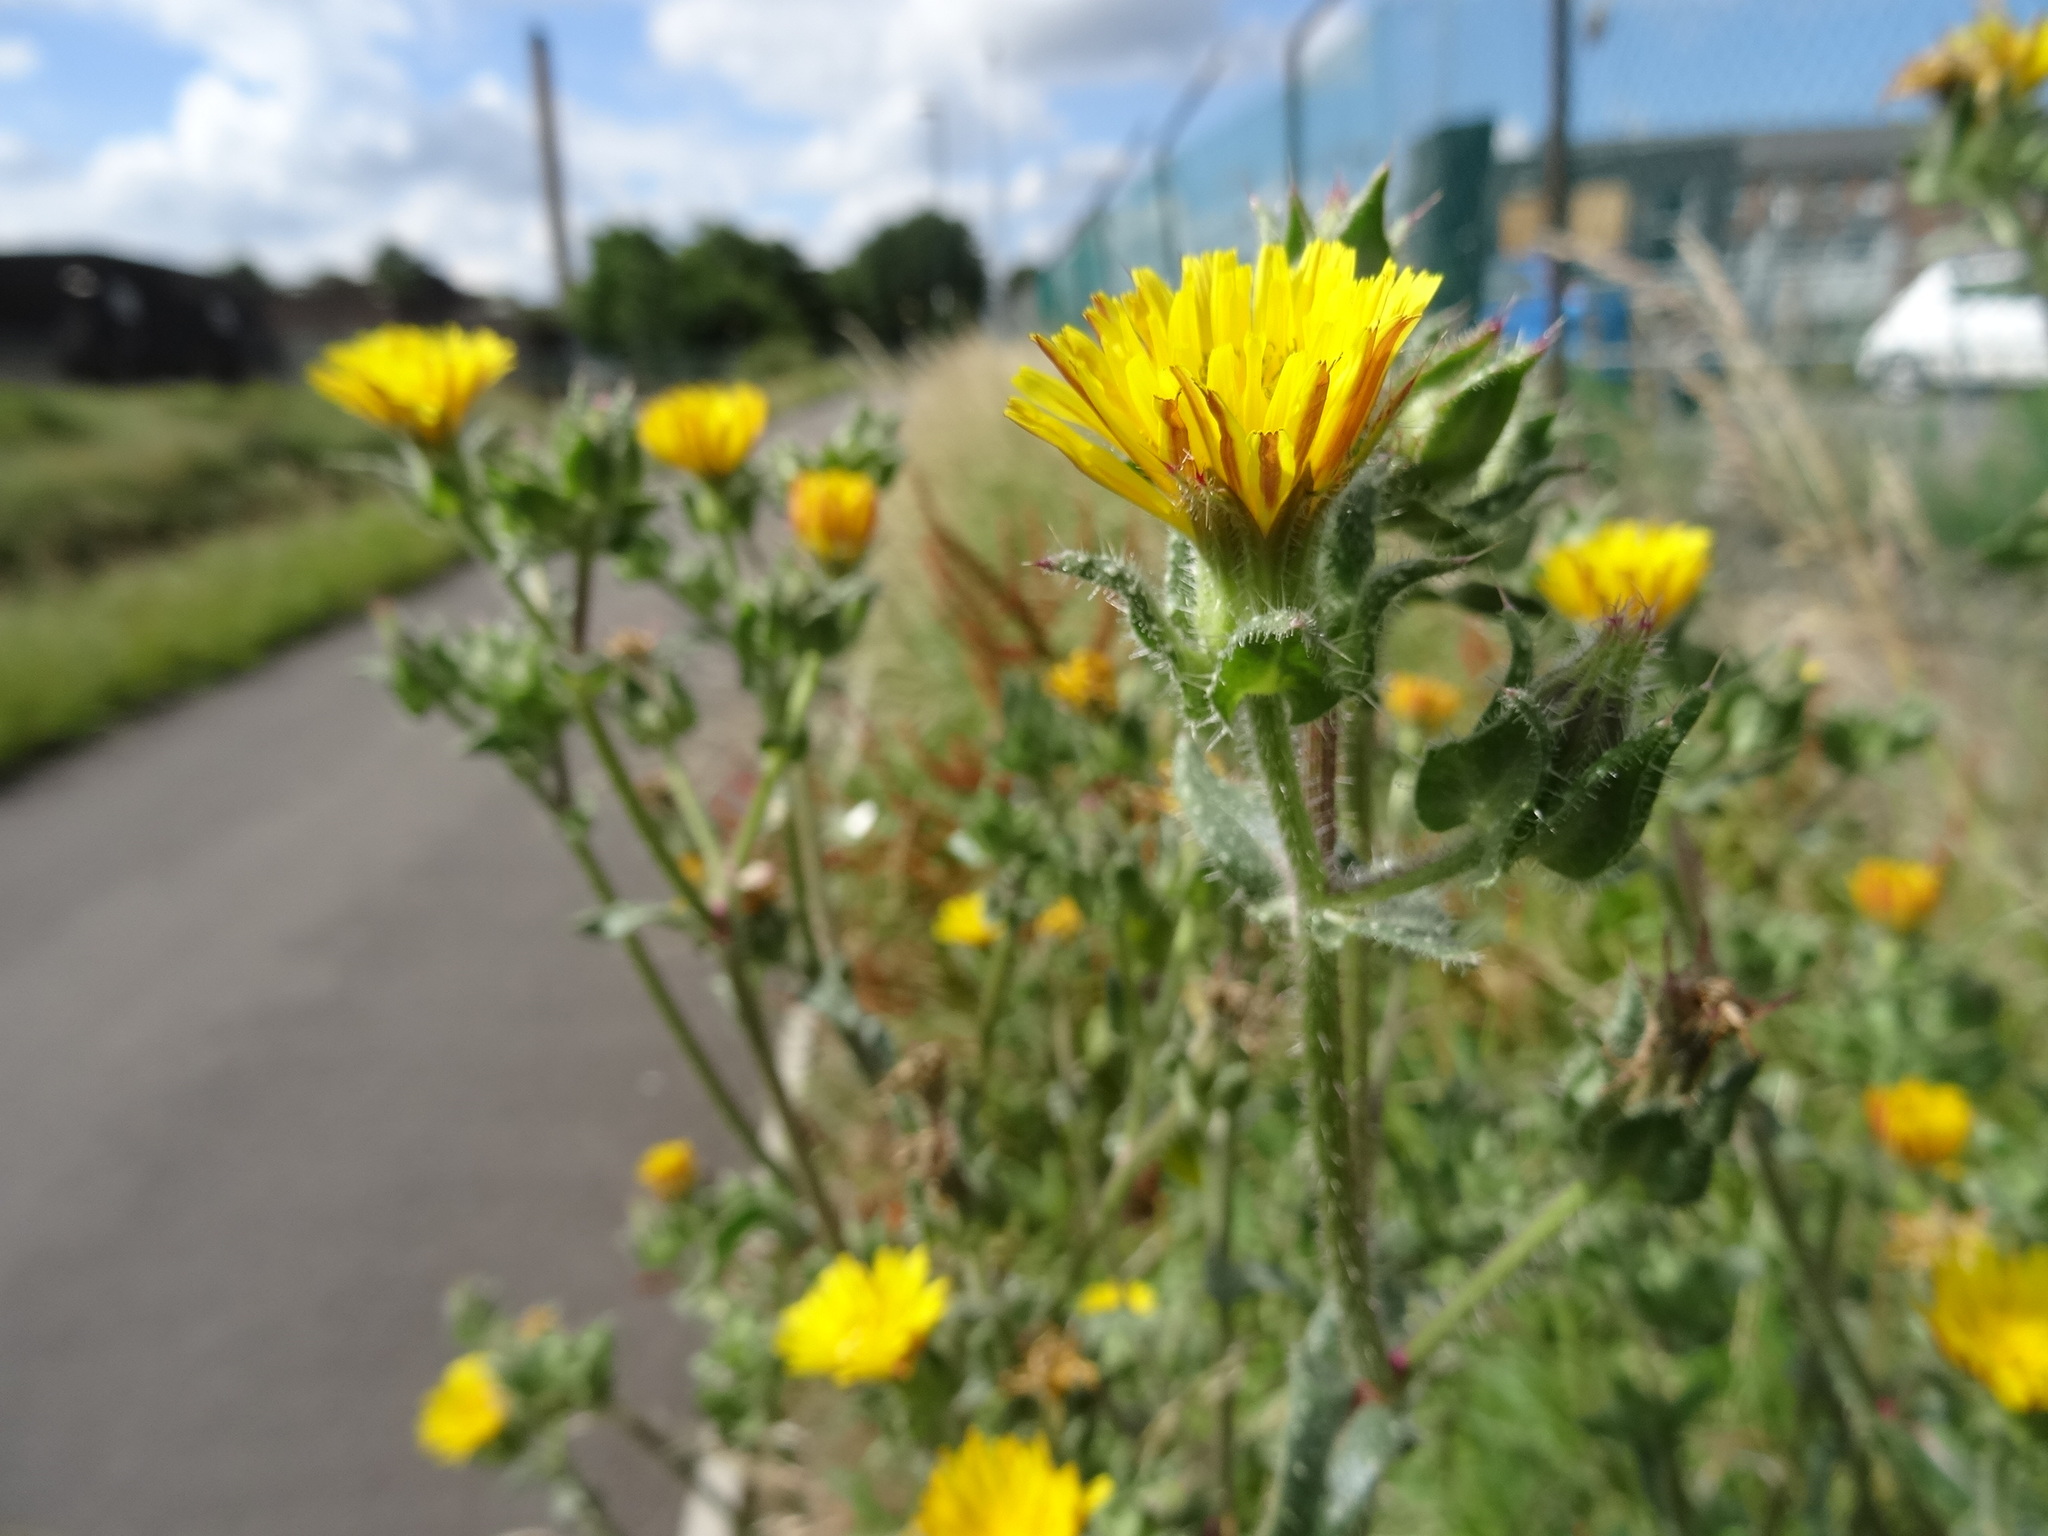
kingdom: Plantae
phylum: Tracheophyta
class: Magnoliopsida
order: Asterales
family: Asteraceae
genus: Helminthotheca
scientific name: Helminthotheca echioides
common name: Ox-tongue
